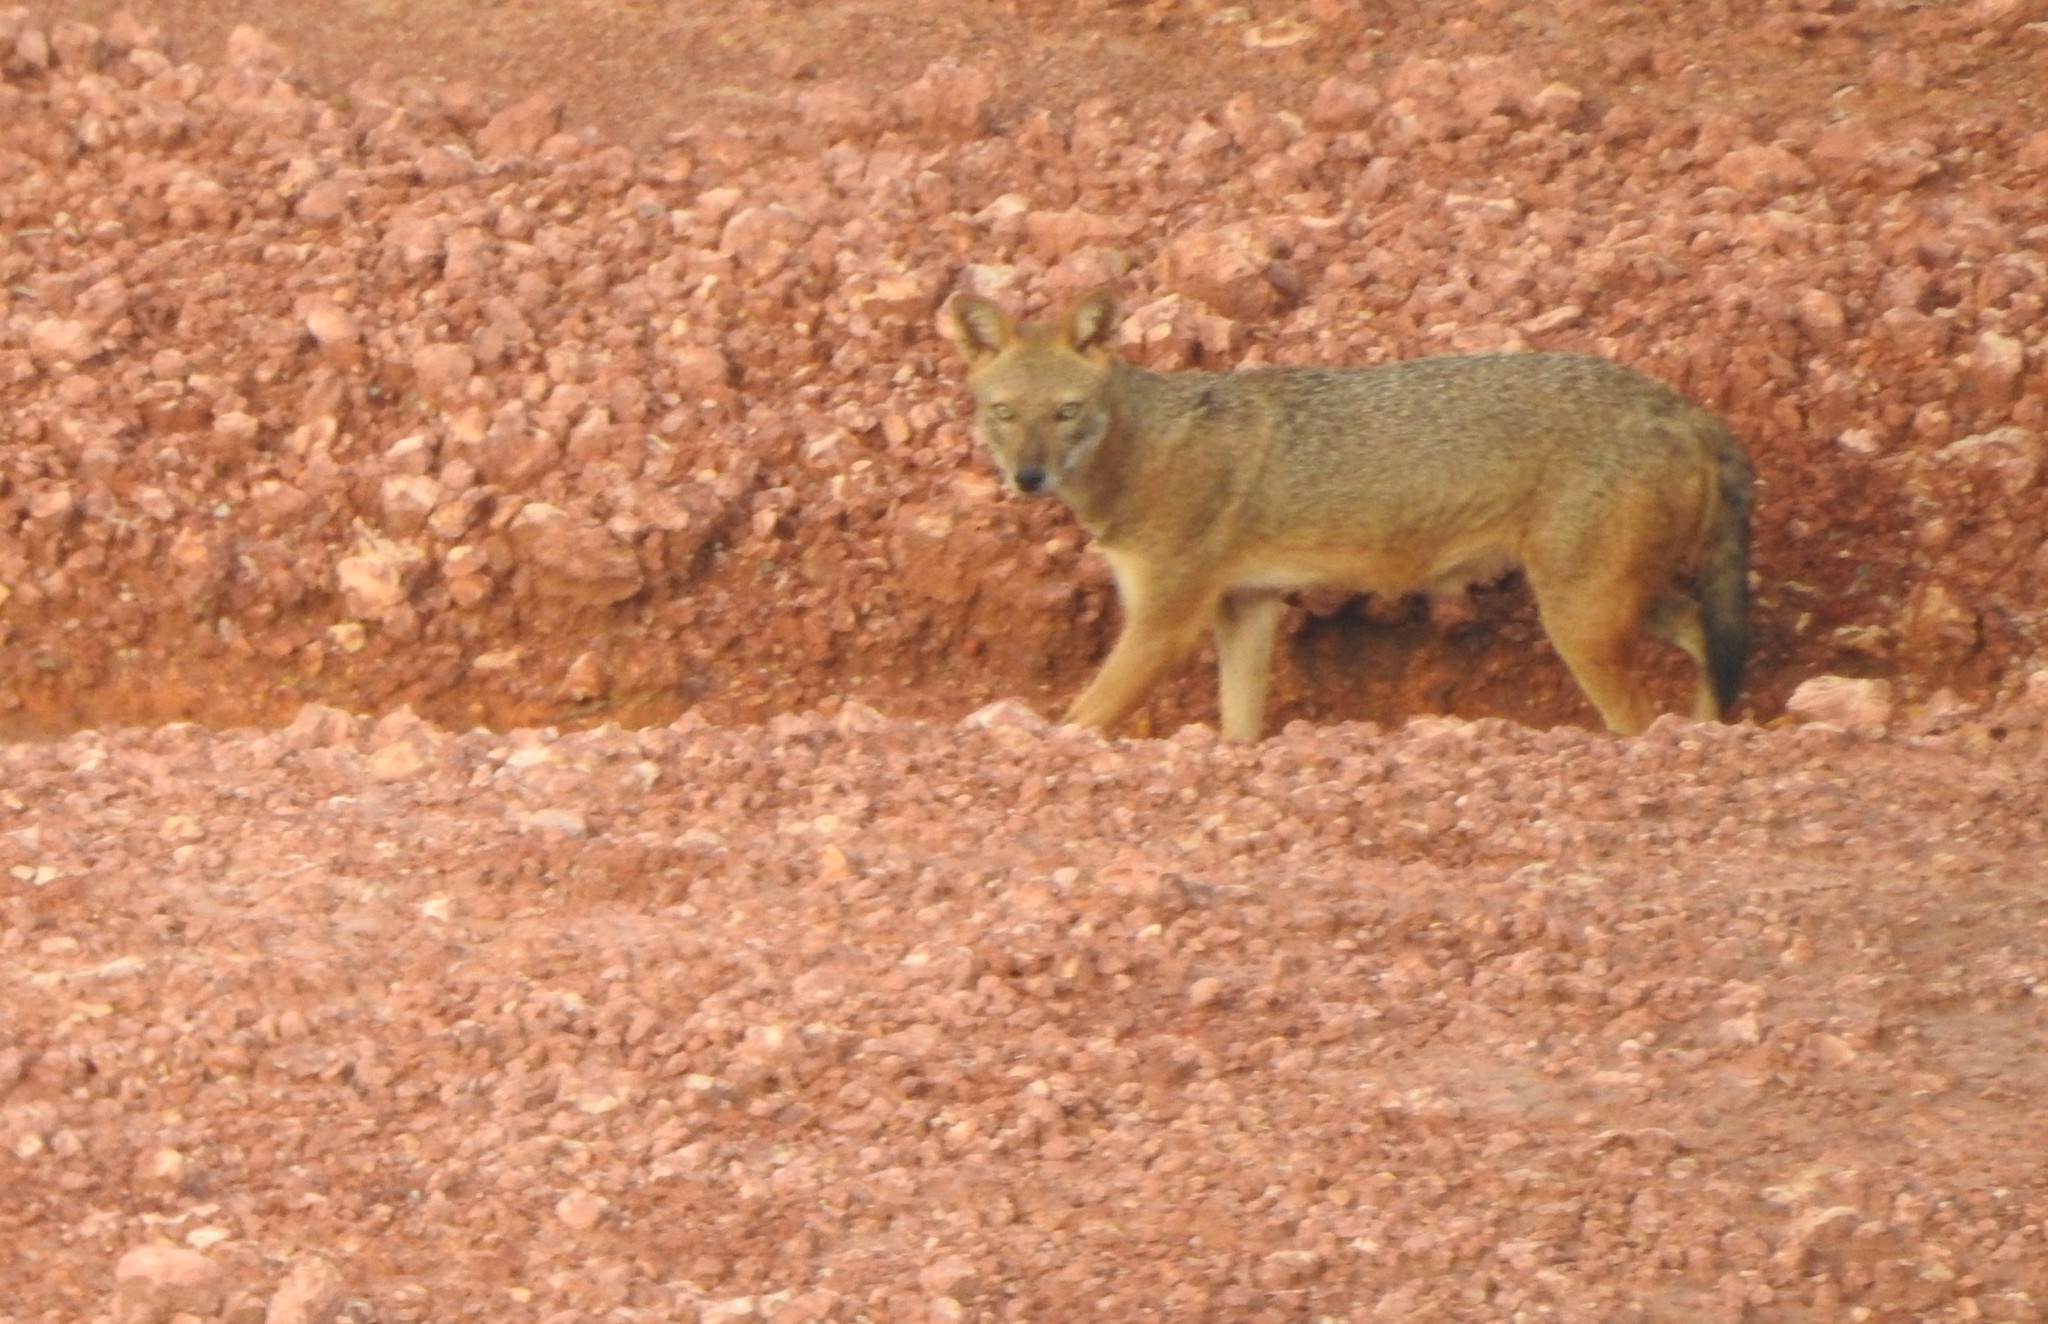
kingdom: Animalia
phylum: Chordata
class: Mammalia
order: Carnivora
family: Canidae
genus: Canis
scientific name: Canis aureus
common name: Golden jackal
